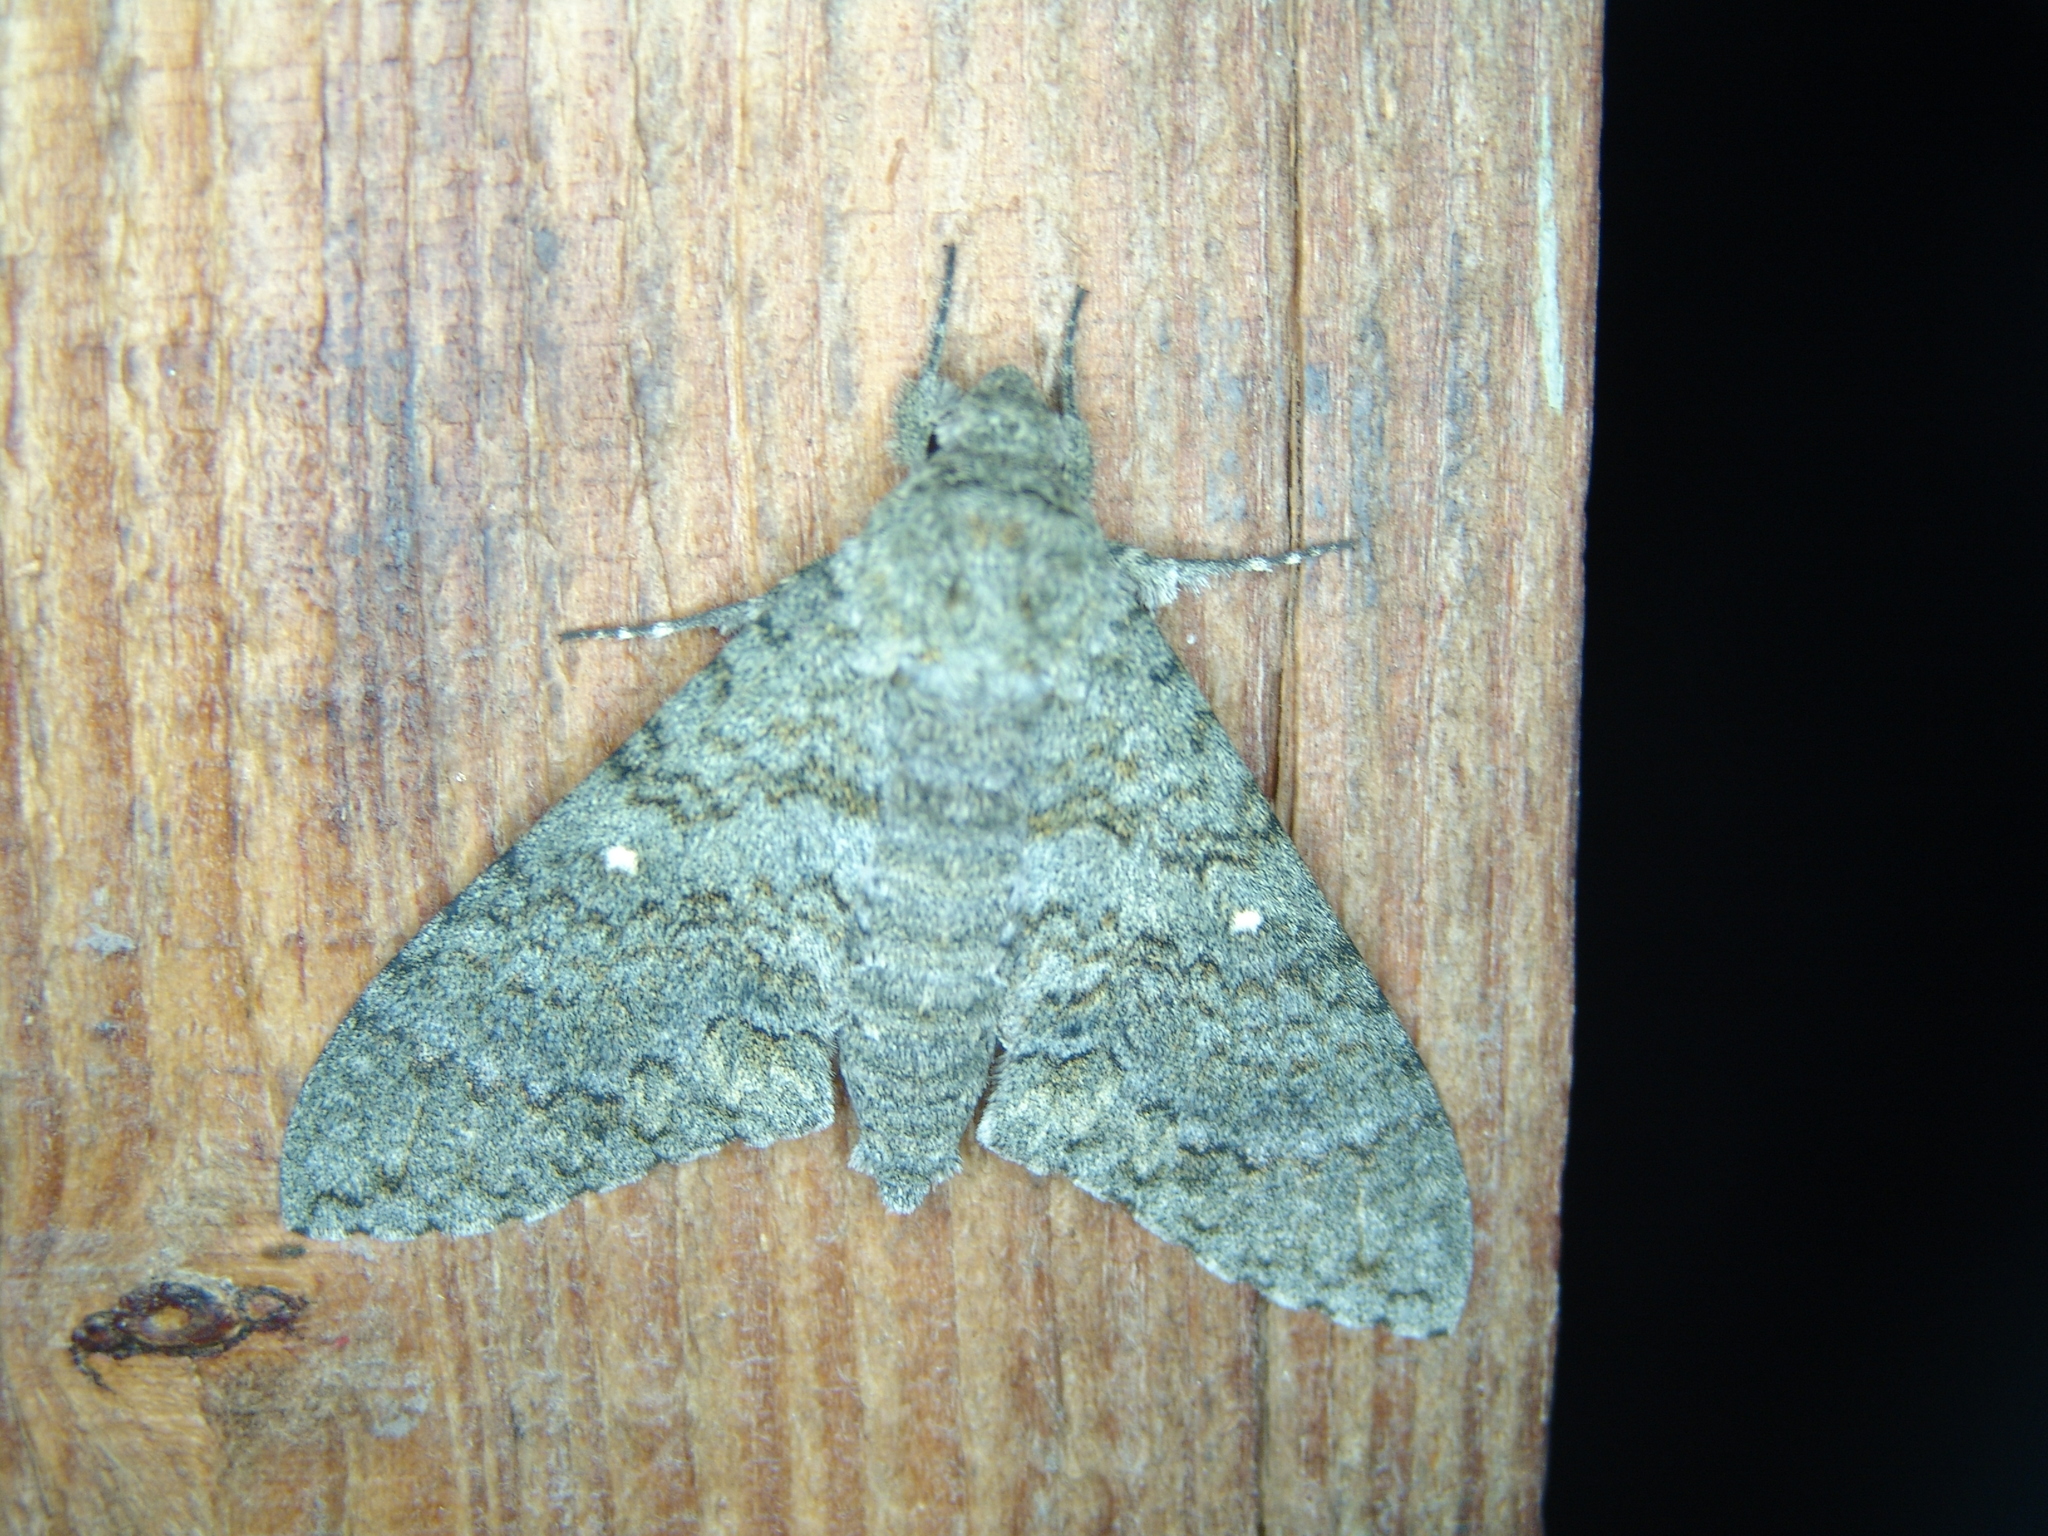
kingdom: Animalia
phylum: Arthropoda
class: Insecta
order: Lepidoptera
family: Sphingidae
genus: Manduca
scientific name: Manduca muscosa
